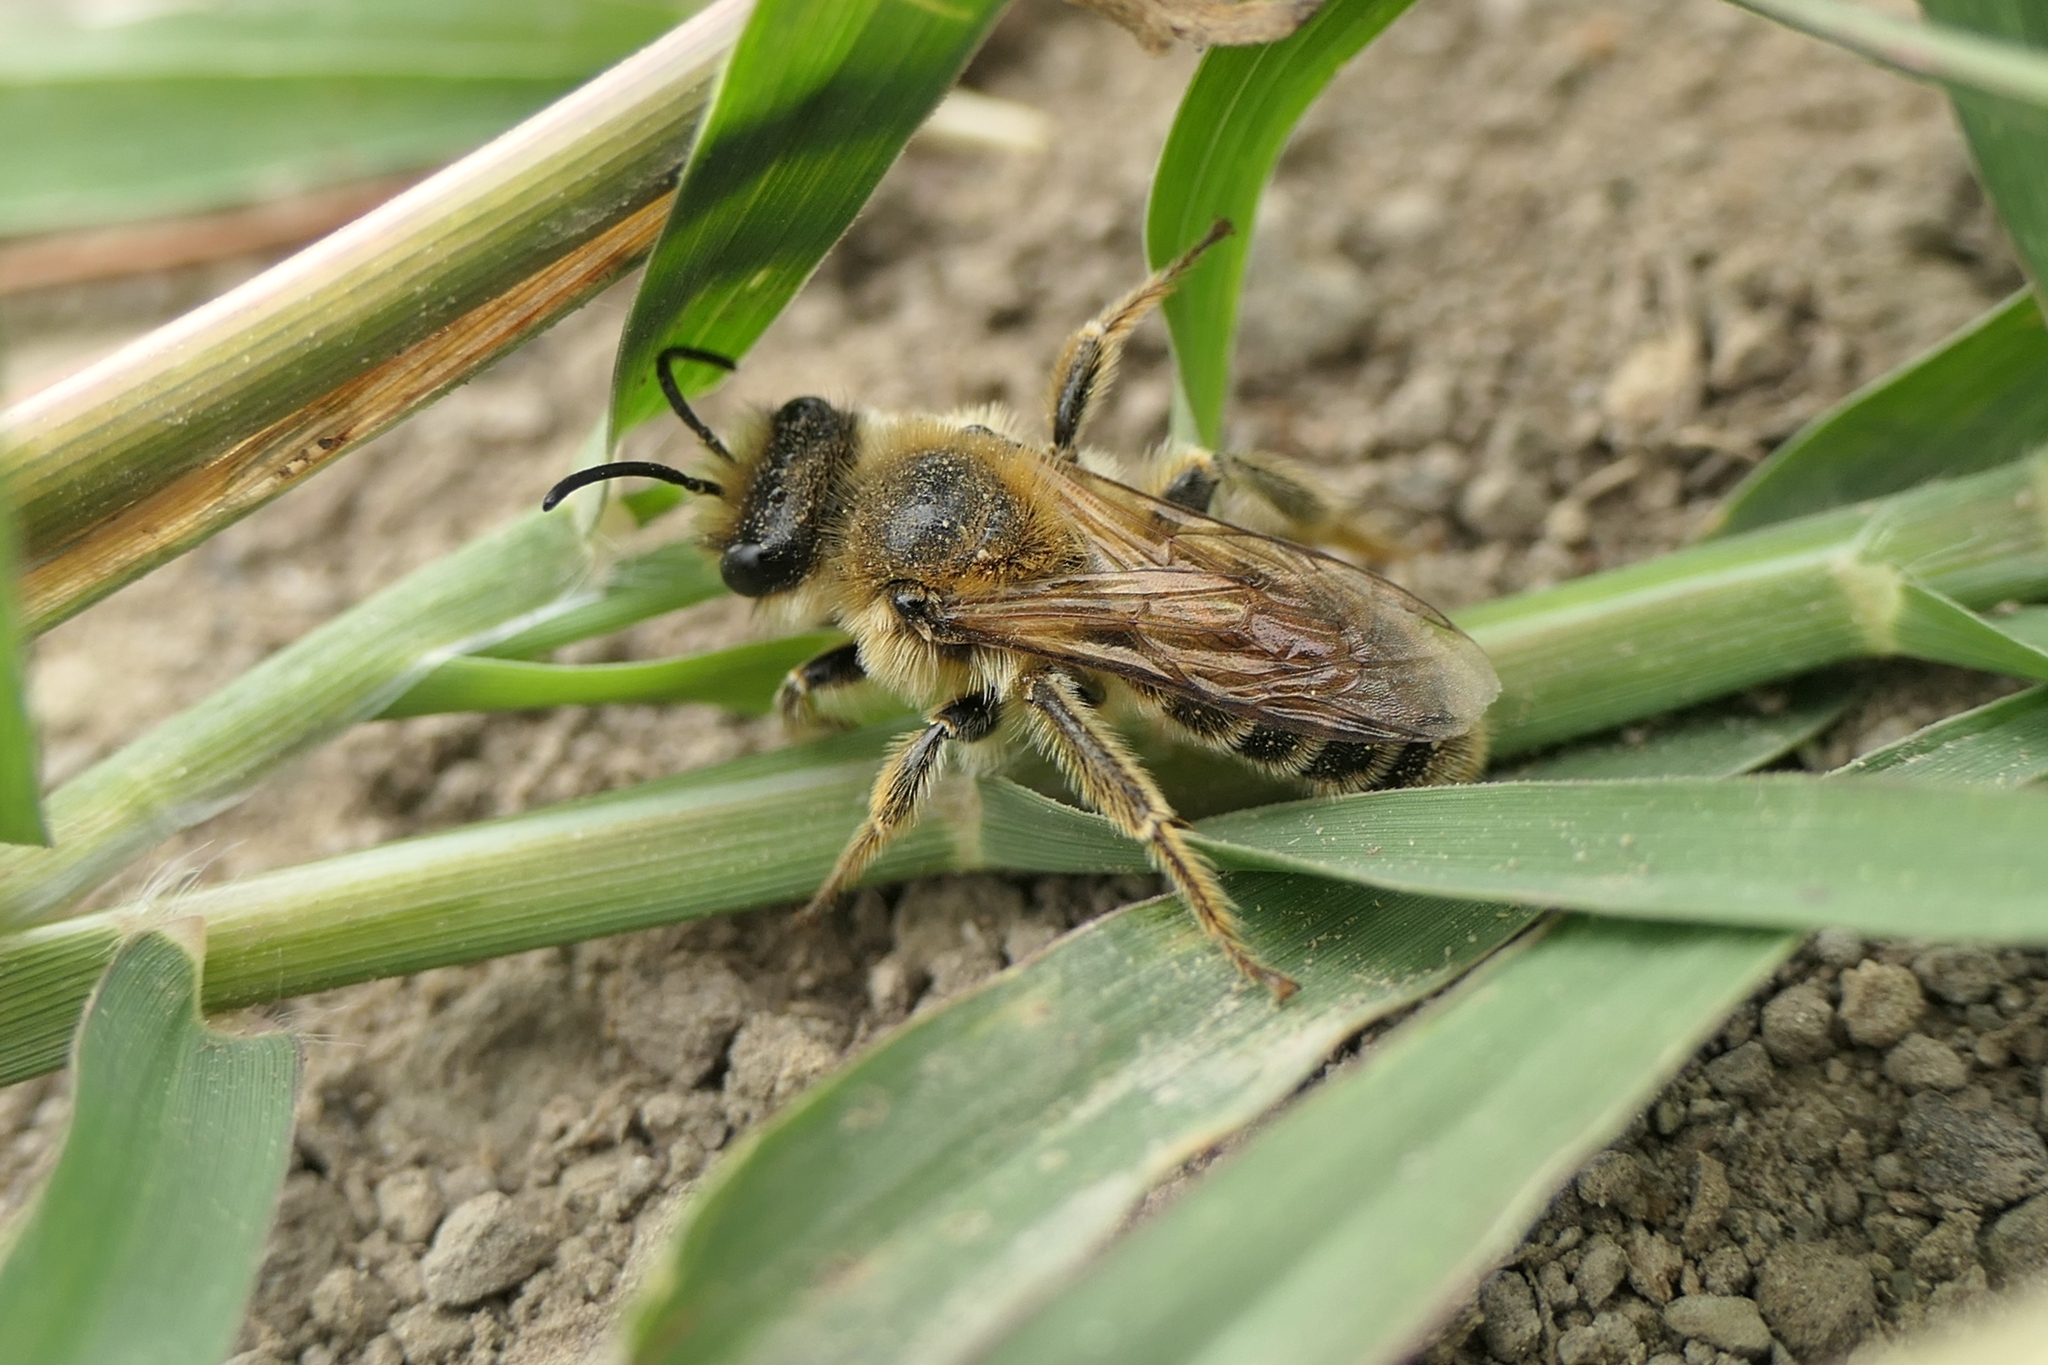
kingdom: Animalia
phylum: Arthropoda
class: Insecta
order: Hymenoptera
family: Colletidae
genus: Leioproctus
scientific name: Leioproctus fulvescens
